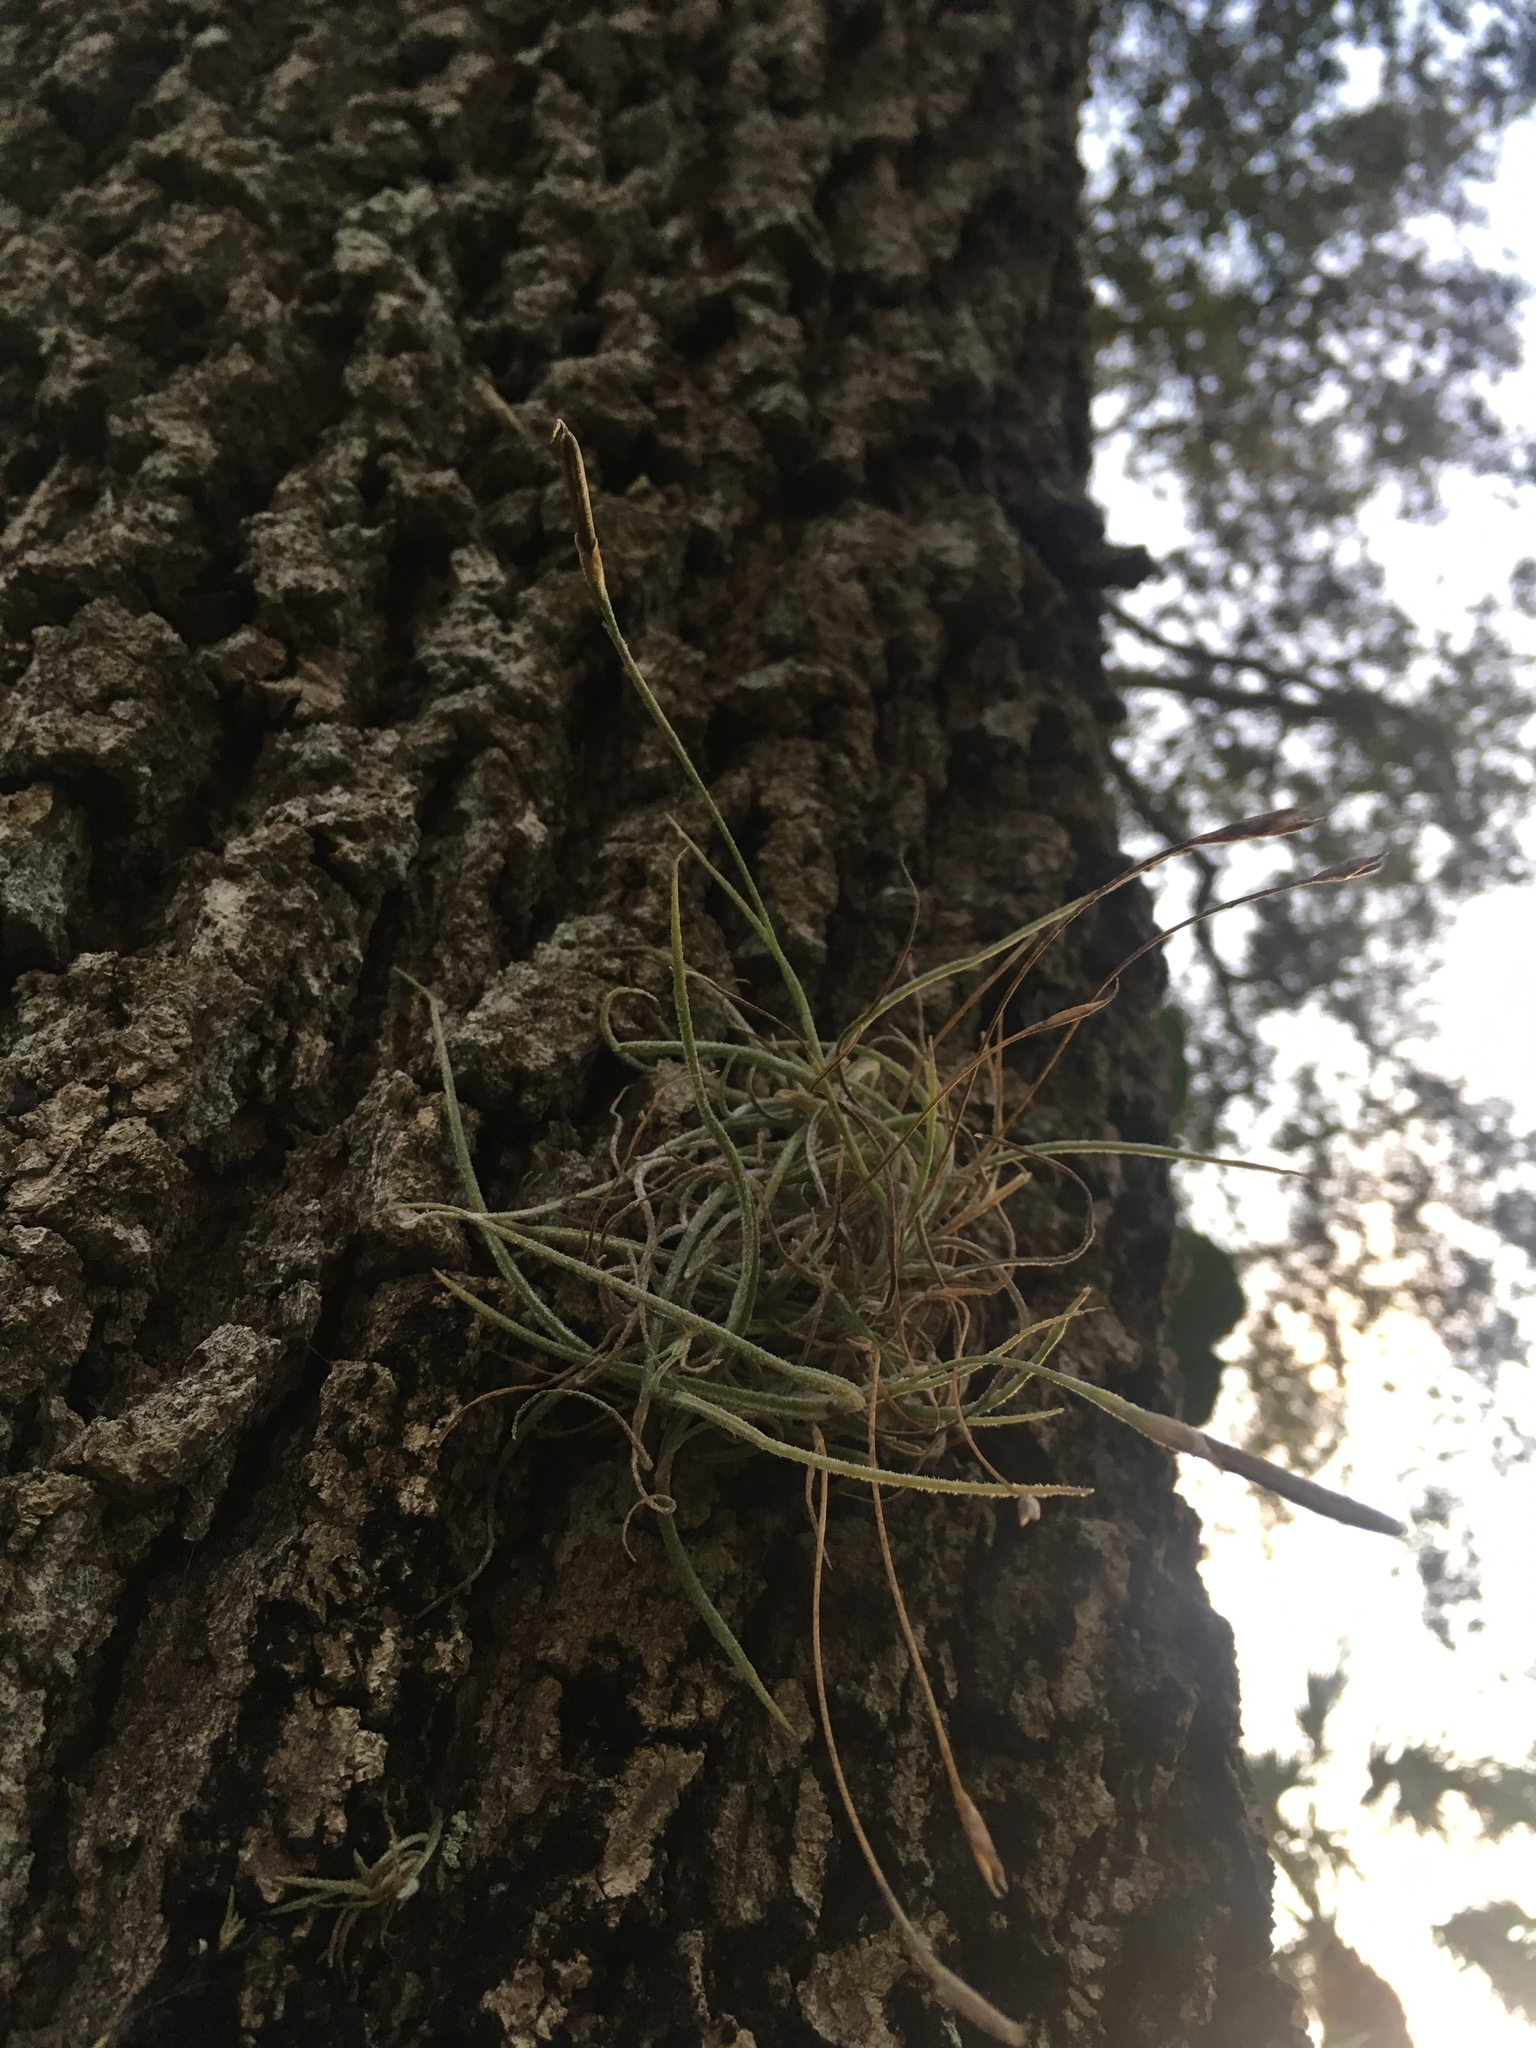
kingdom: Plantae
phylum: Tracheophyta
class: Liliopsida
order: Poales
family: Bromeliaceae
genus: Tillandsia
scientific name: Tillandsia recurvata
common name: Small ballmoss
